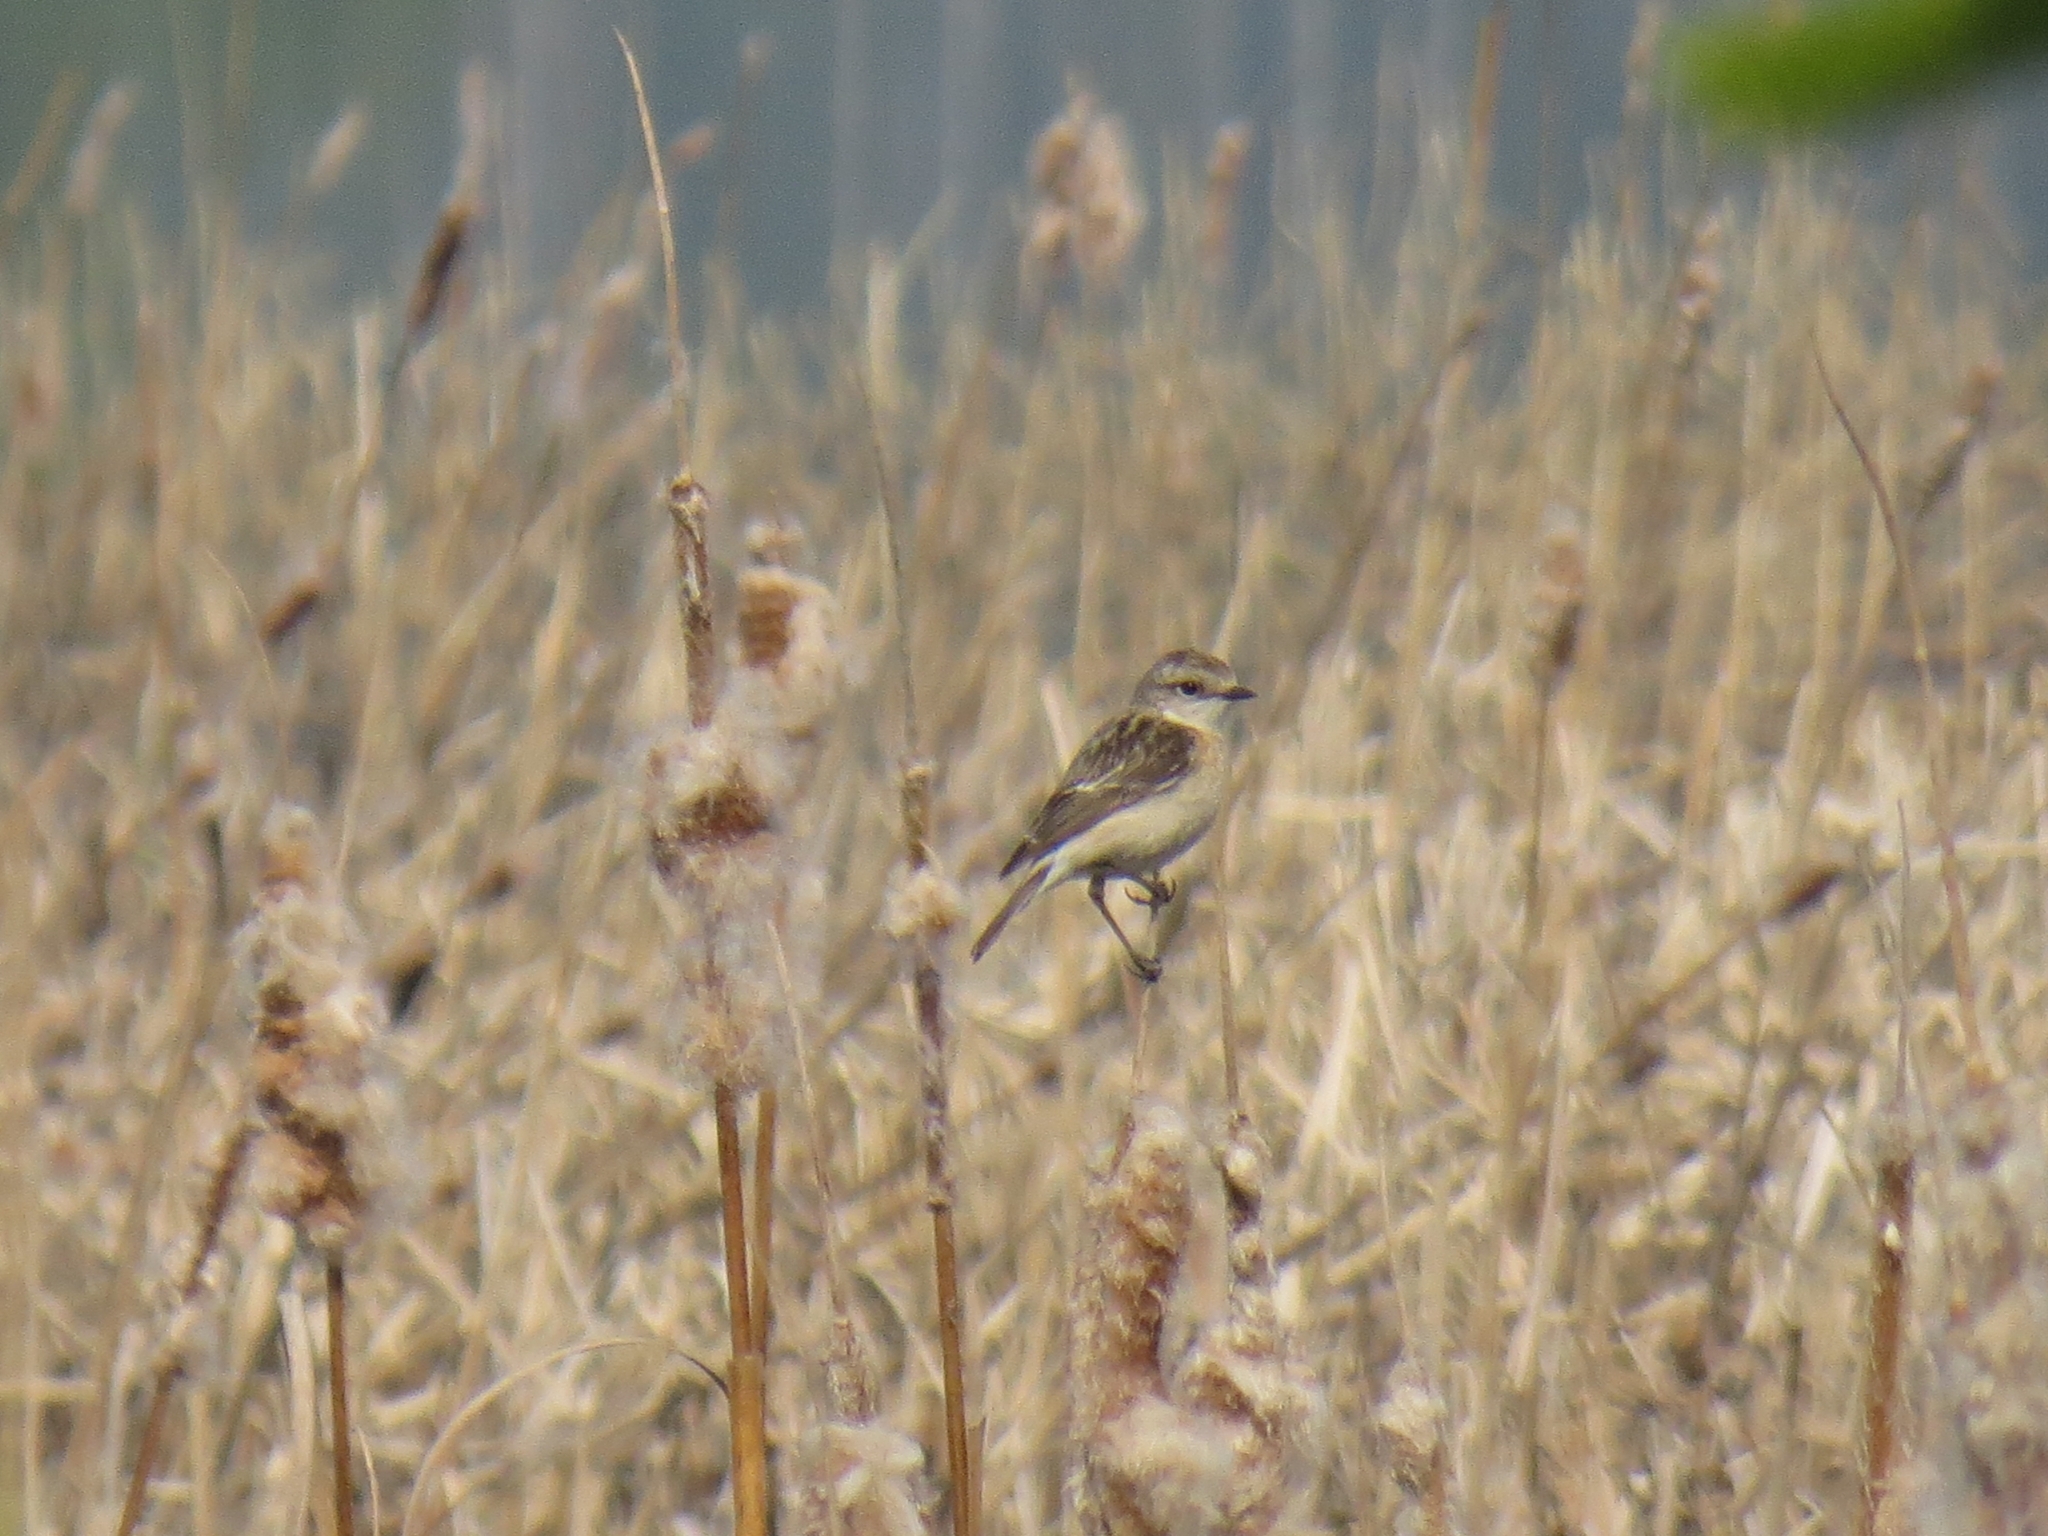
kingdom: Animalia
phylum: Chordata
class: Aves
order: Passeriformes
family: Muscicapidae
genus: Saxicola
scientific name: Saxicola maurus
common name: Siberian stonechat
